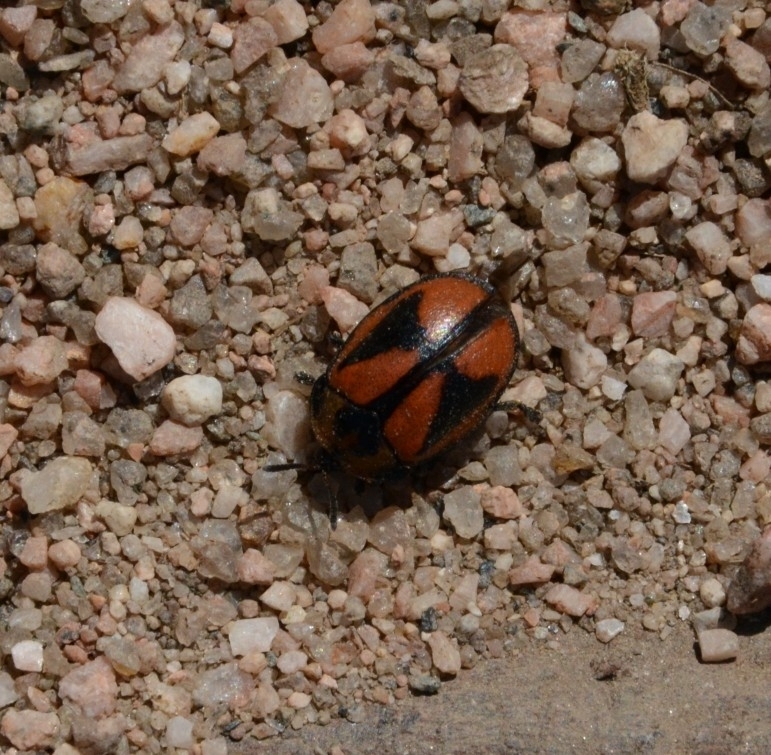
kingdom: Animalia
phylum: Arthropoda
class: Insecta
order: Coleoptera
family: Chrysomelidae
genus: Chelymorpha
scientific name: Chelymorpha varians
